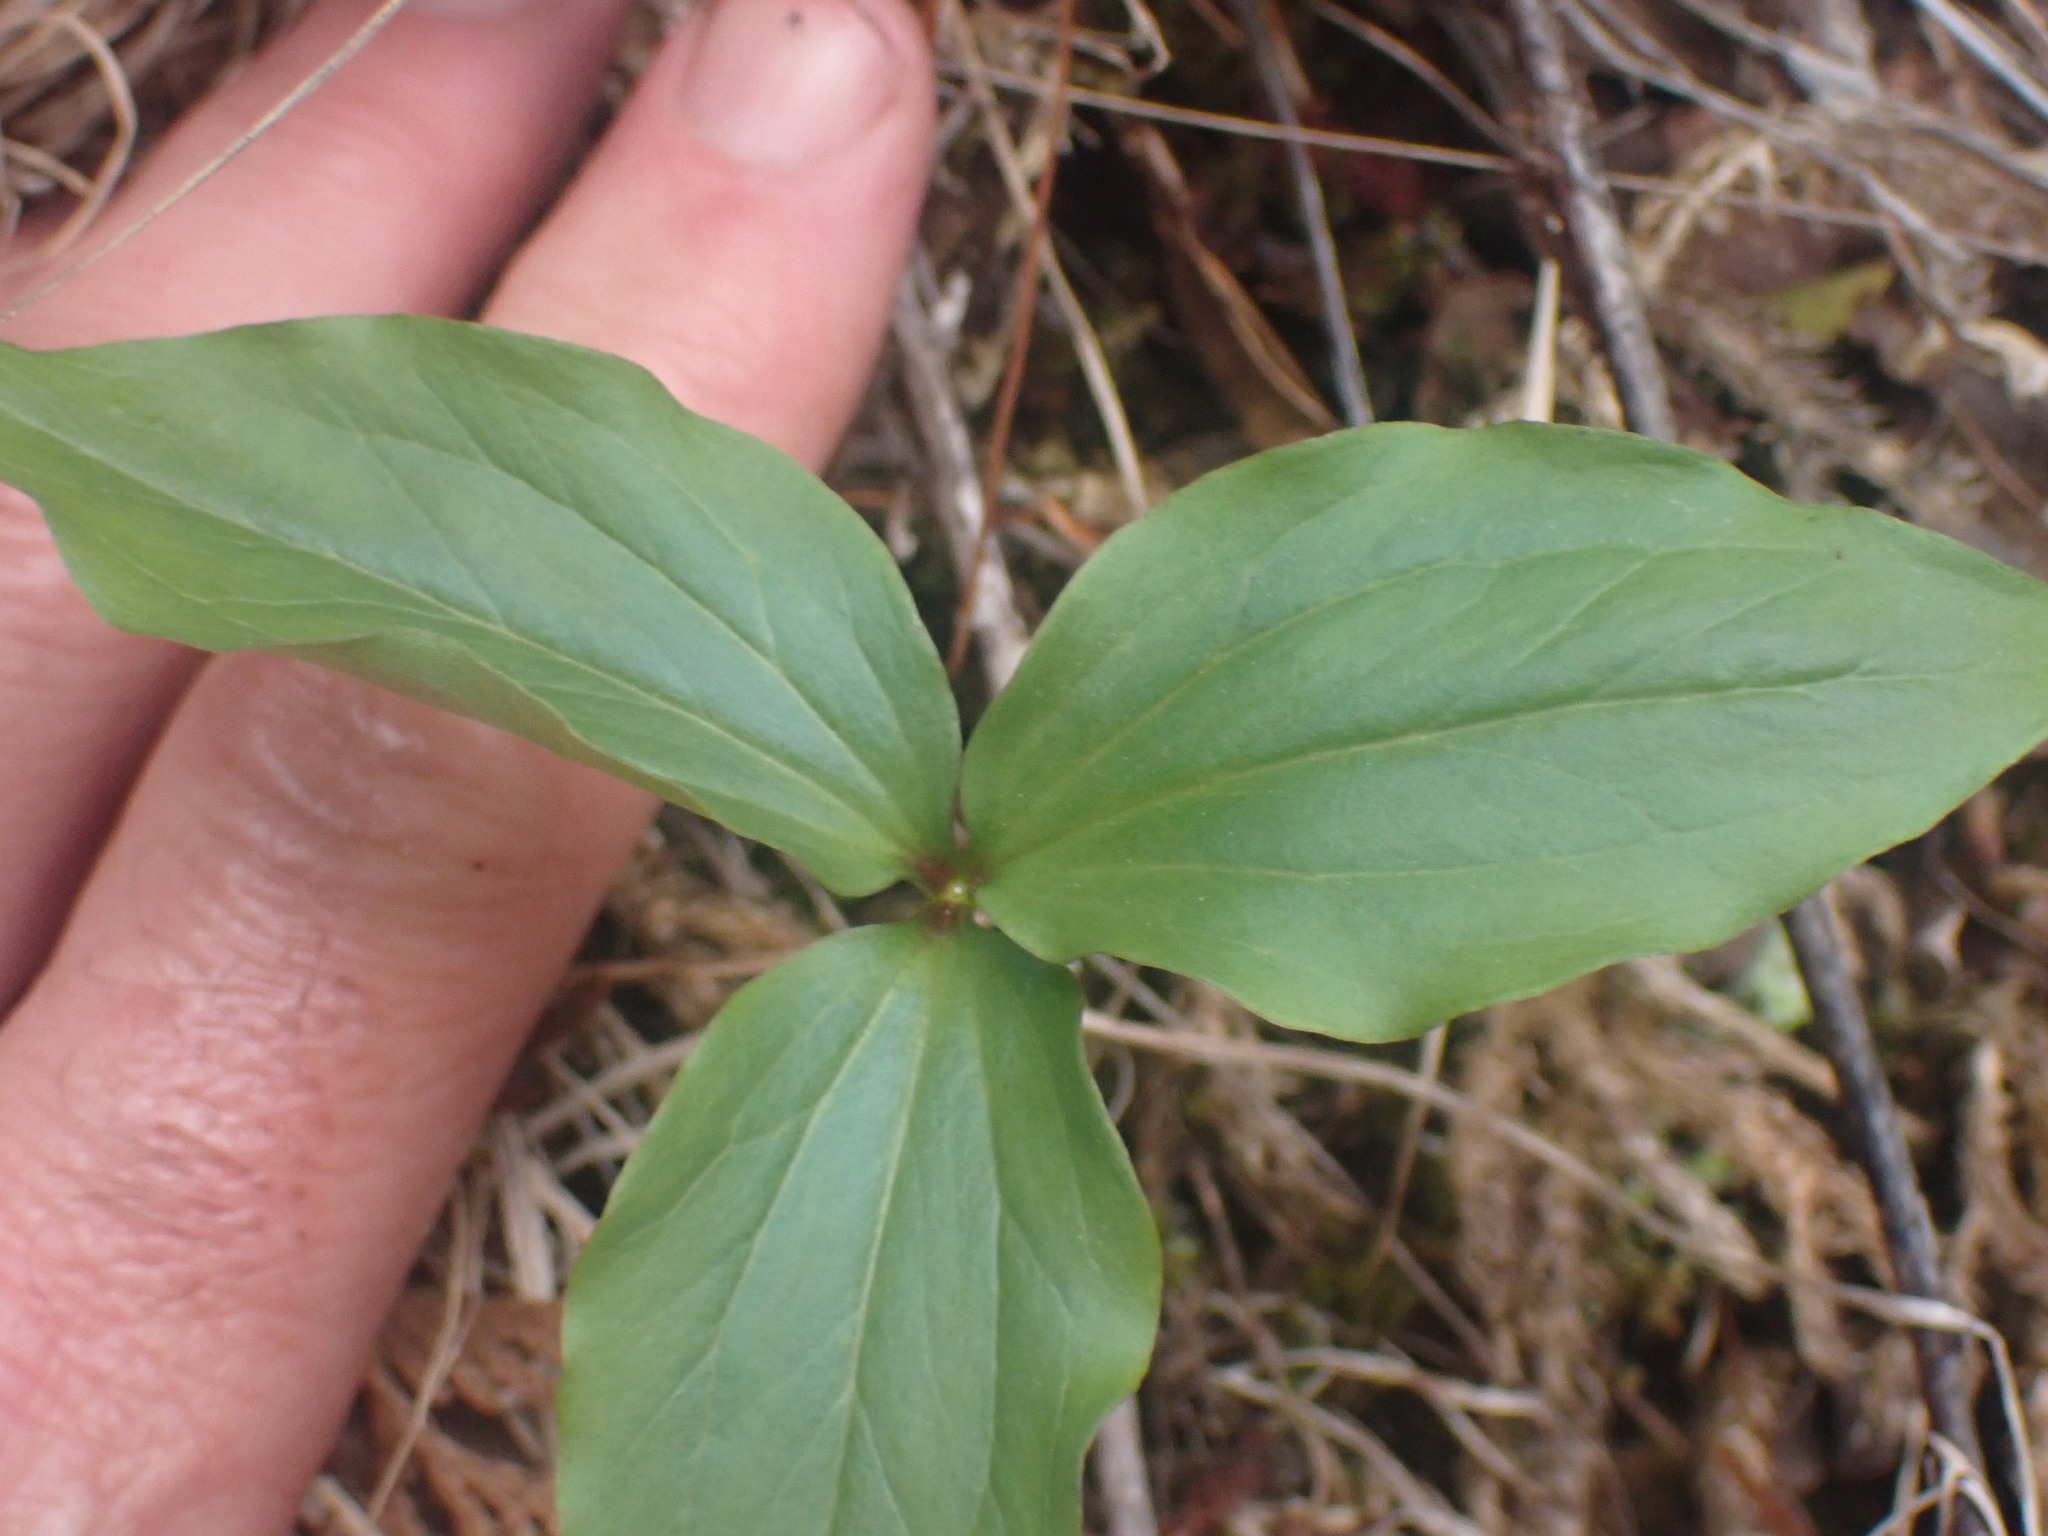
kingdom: Plantae
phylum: Tracheophyta
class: Liliopsida
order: Liliales
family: Melanthiaceae
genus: Trillium
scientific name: Trillium hibbersonii
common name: Hibberson's trillium
